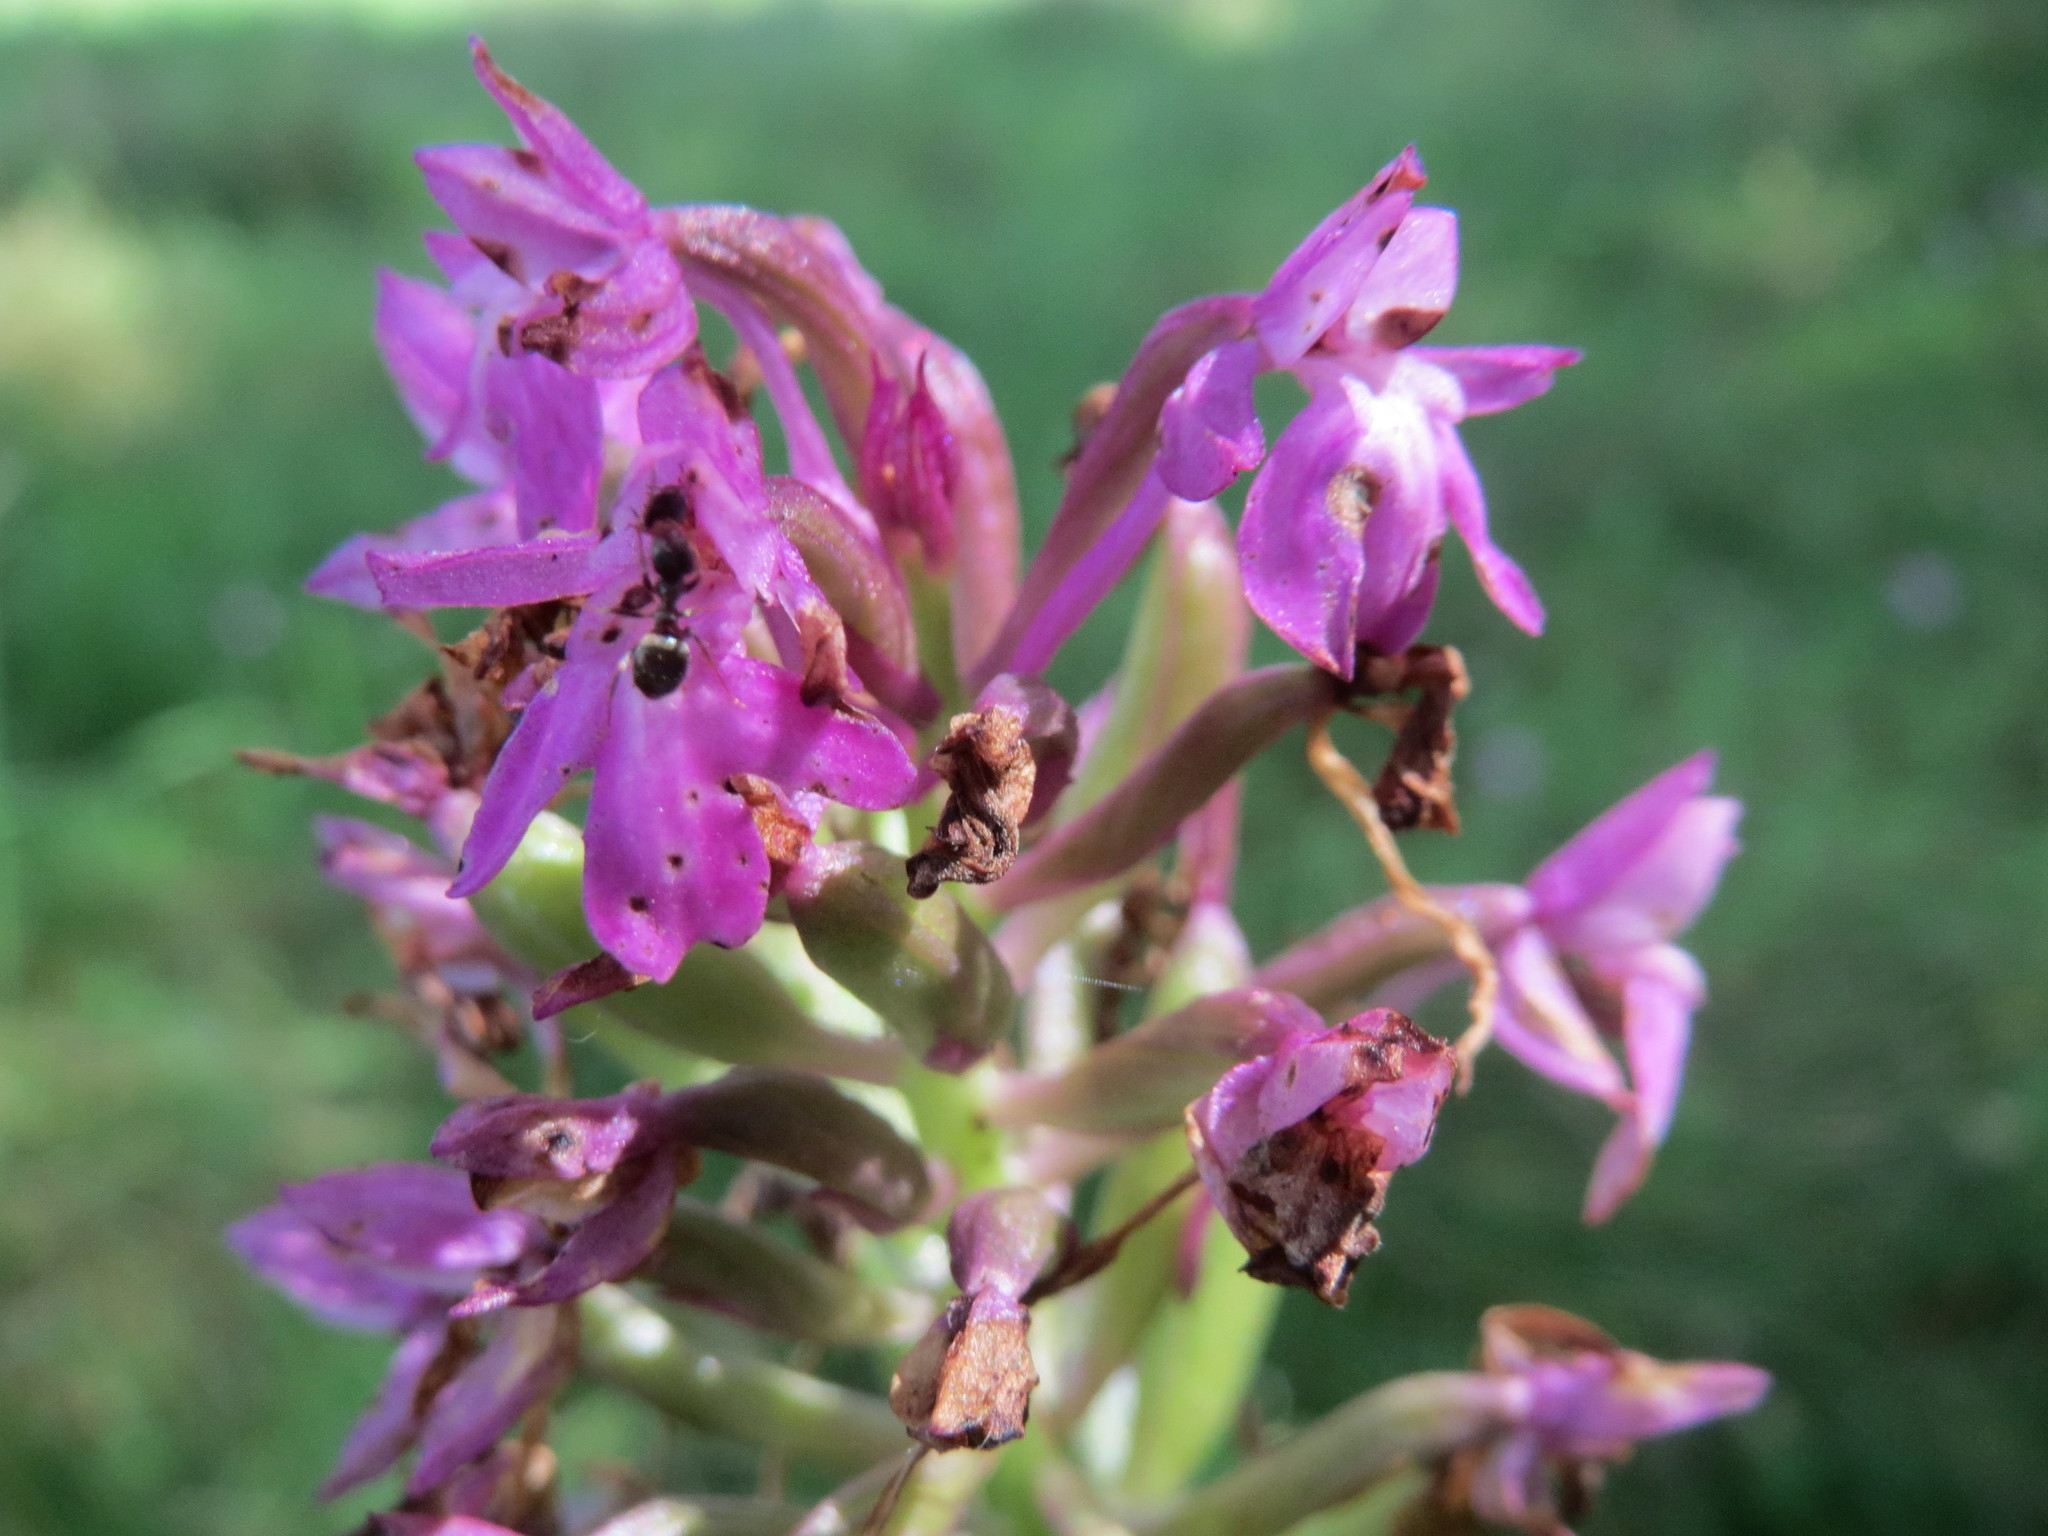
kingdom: Plantae
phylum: Tracheophyta
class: Liliopsida
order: Asparagales
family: Orchidaceae
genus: Anacamptis
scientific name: Anacamptis pyramidalis
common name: Pyramidal orchid
